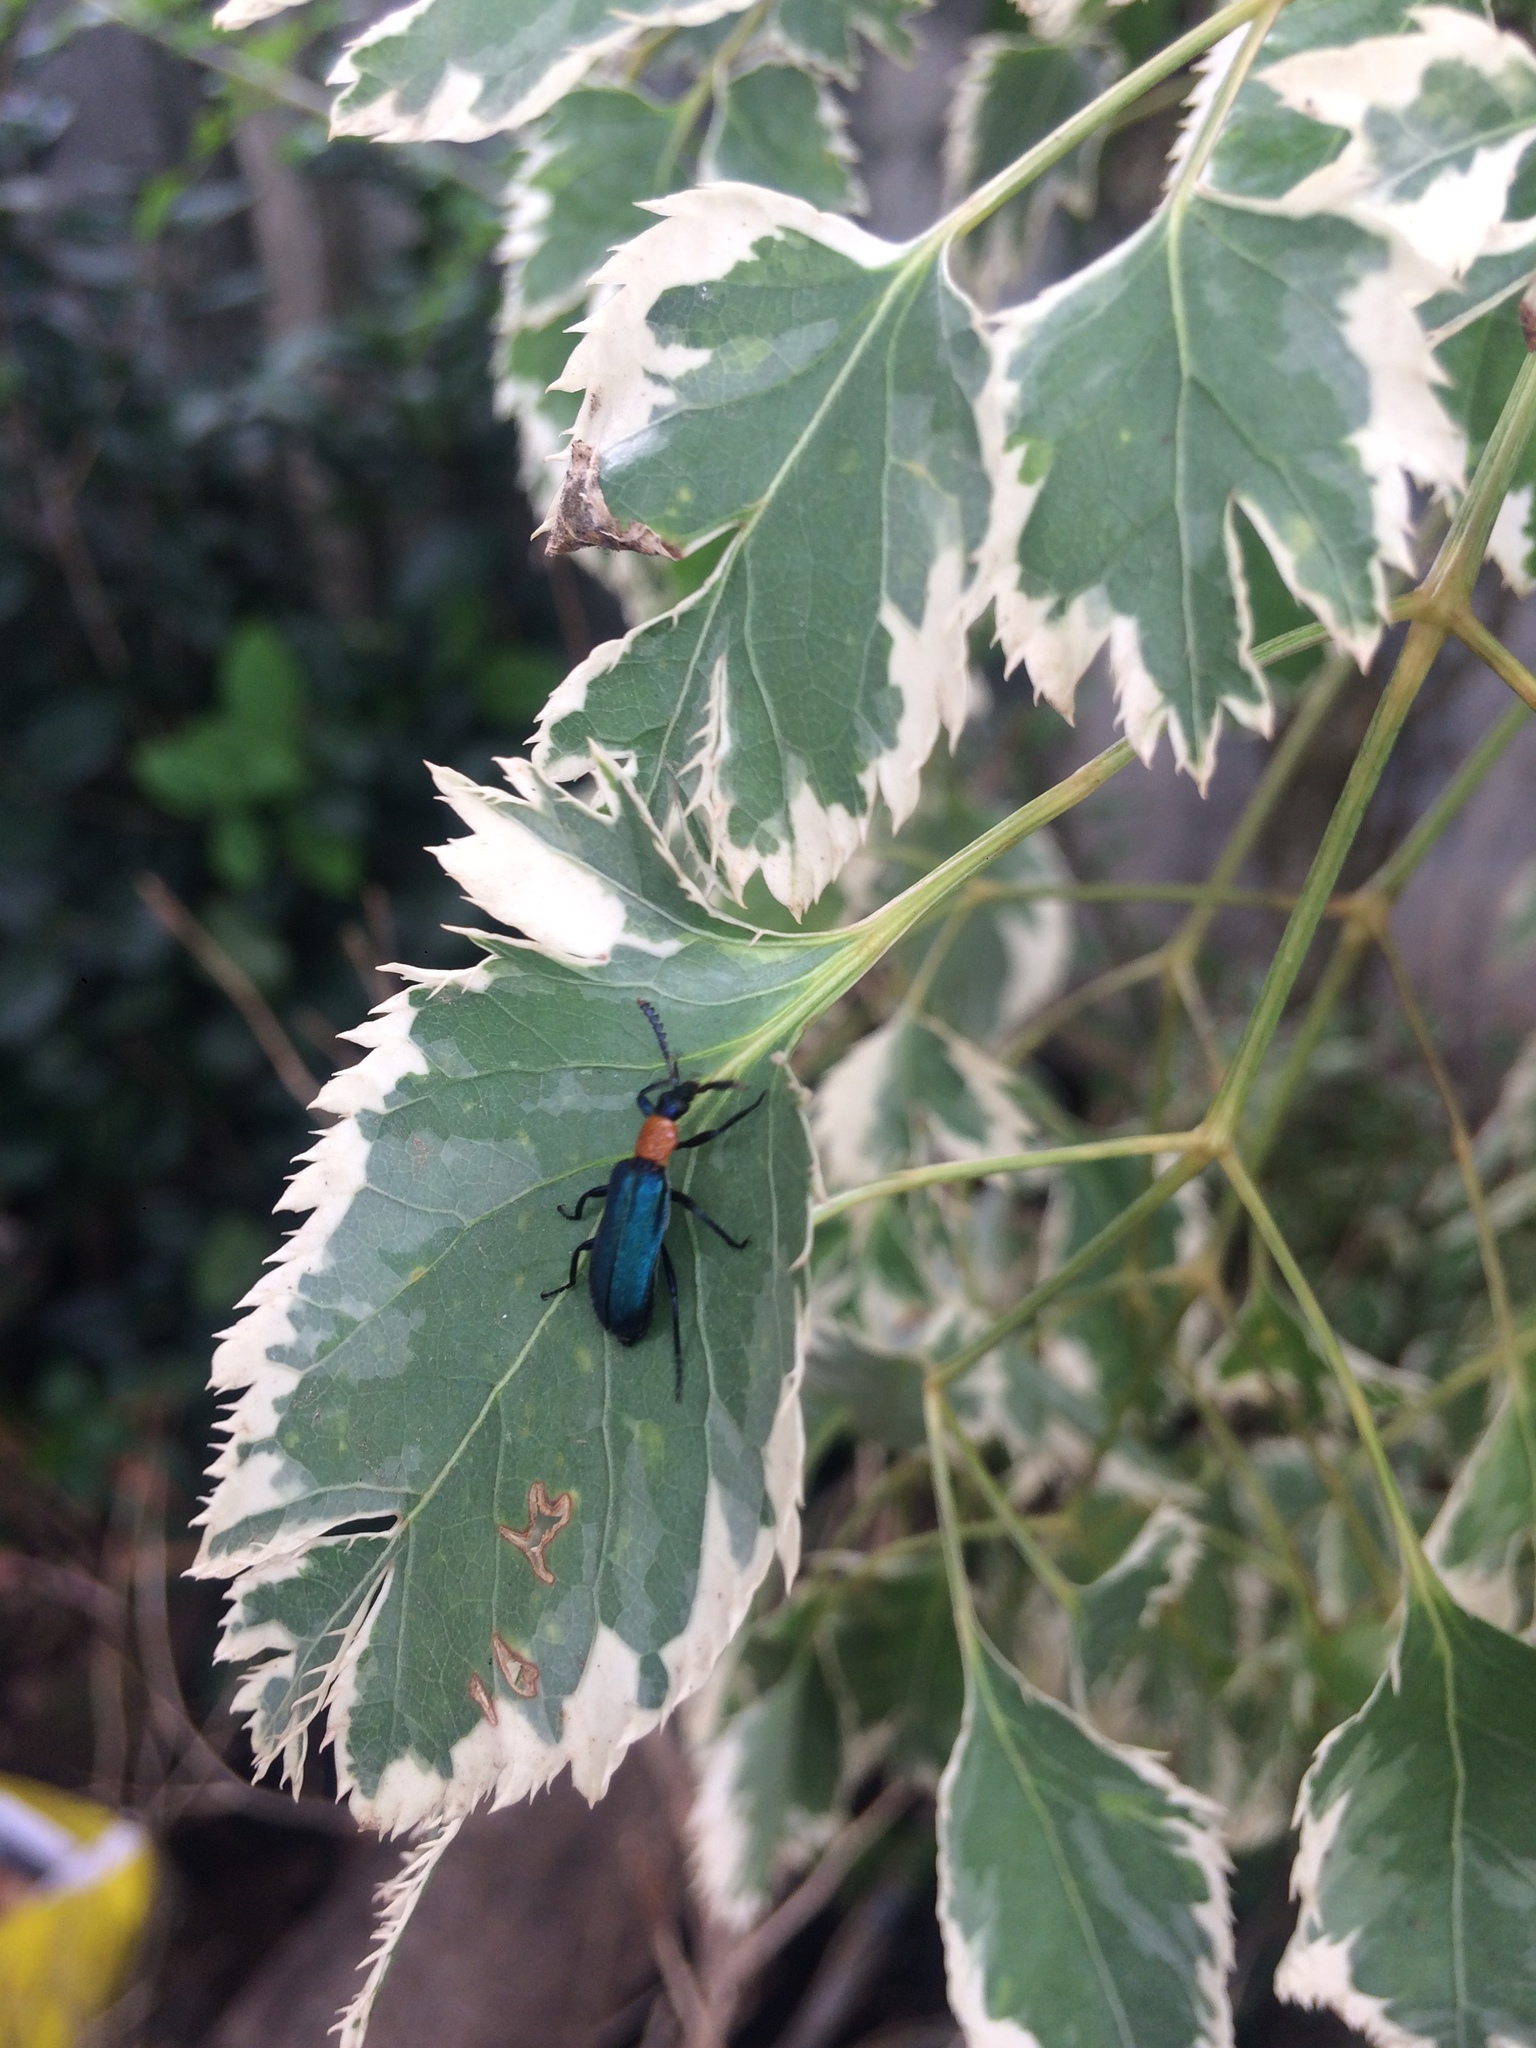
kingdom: Animalia
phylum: Arthropoda
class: Insecta
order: Coleoptera
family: Prionoceridae
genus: Prionocerus
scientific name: Prionocerus coeruleipennis
